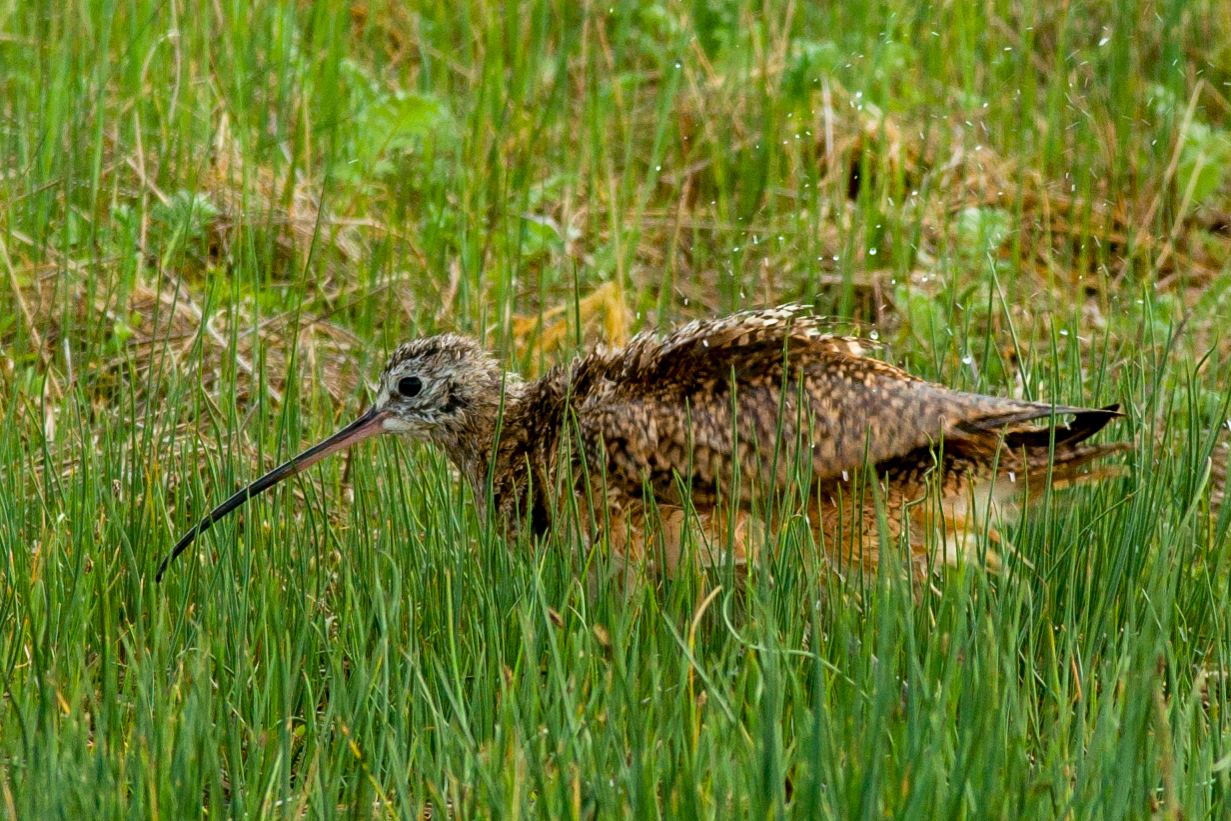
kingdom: Animalia
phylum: Chordata
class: Aves
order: Charadriiformes
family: Scolopacidae
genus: Numenius
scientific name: Numenius americanus
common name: Long-billed curlew
